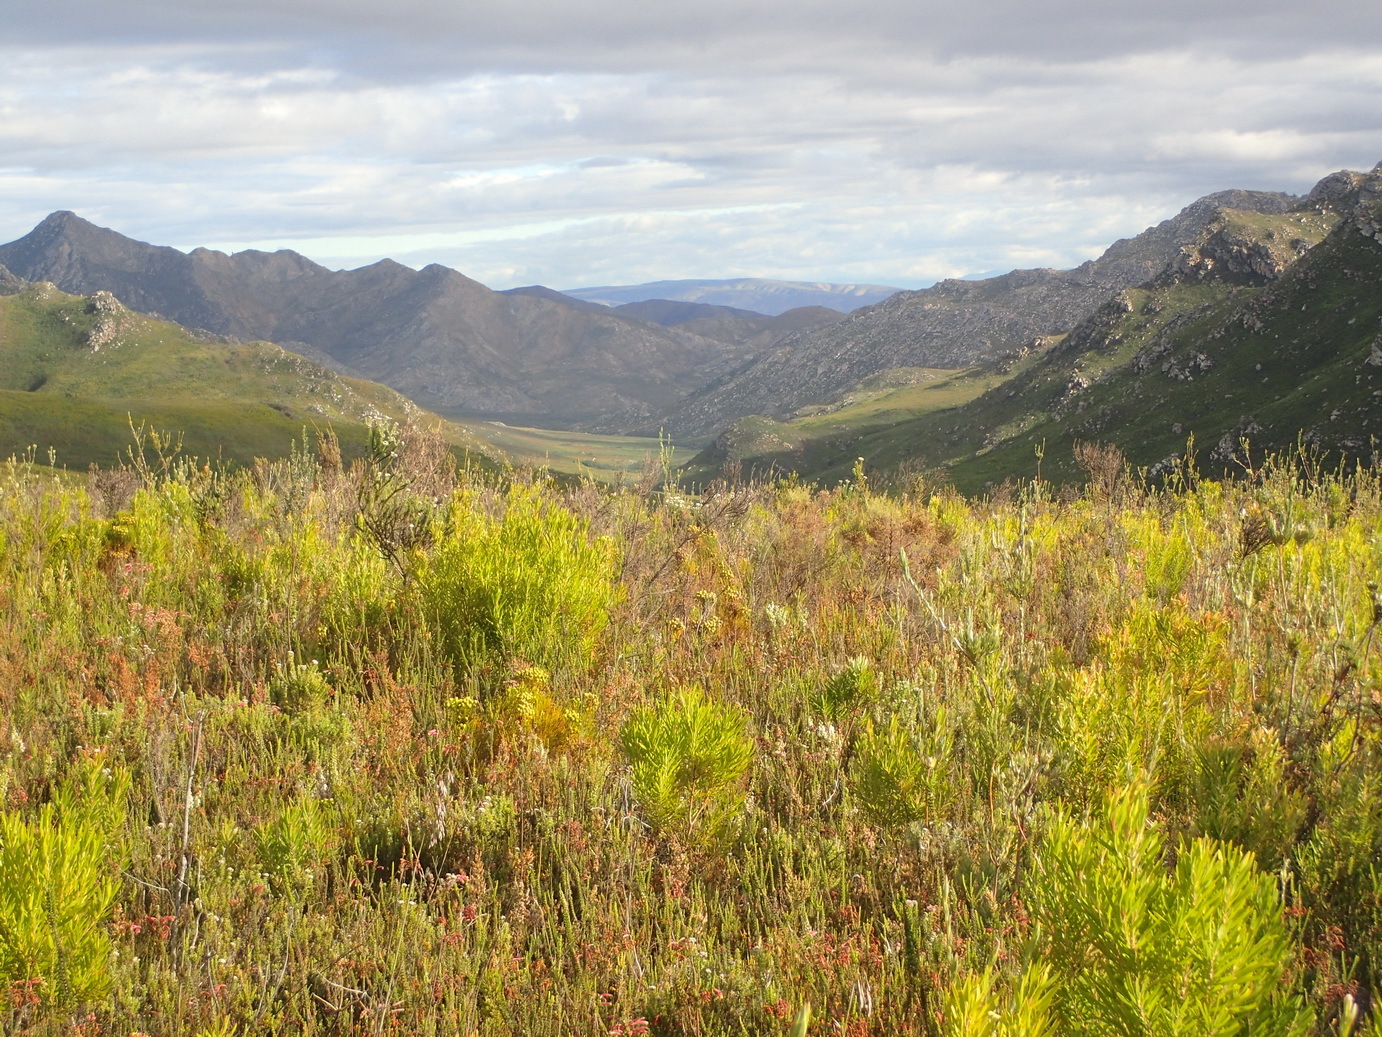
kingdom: Plantae
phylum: Tracheophyta
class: Magnoliopsida
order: Proteales
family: Proteaceae
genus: Leucadendron
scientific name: Leucadendron eucalyptifolium
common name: Gum-leaved conebush
